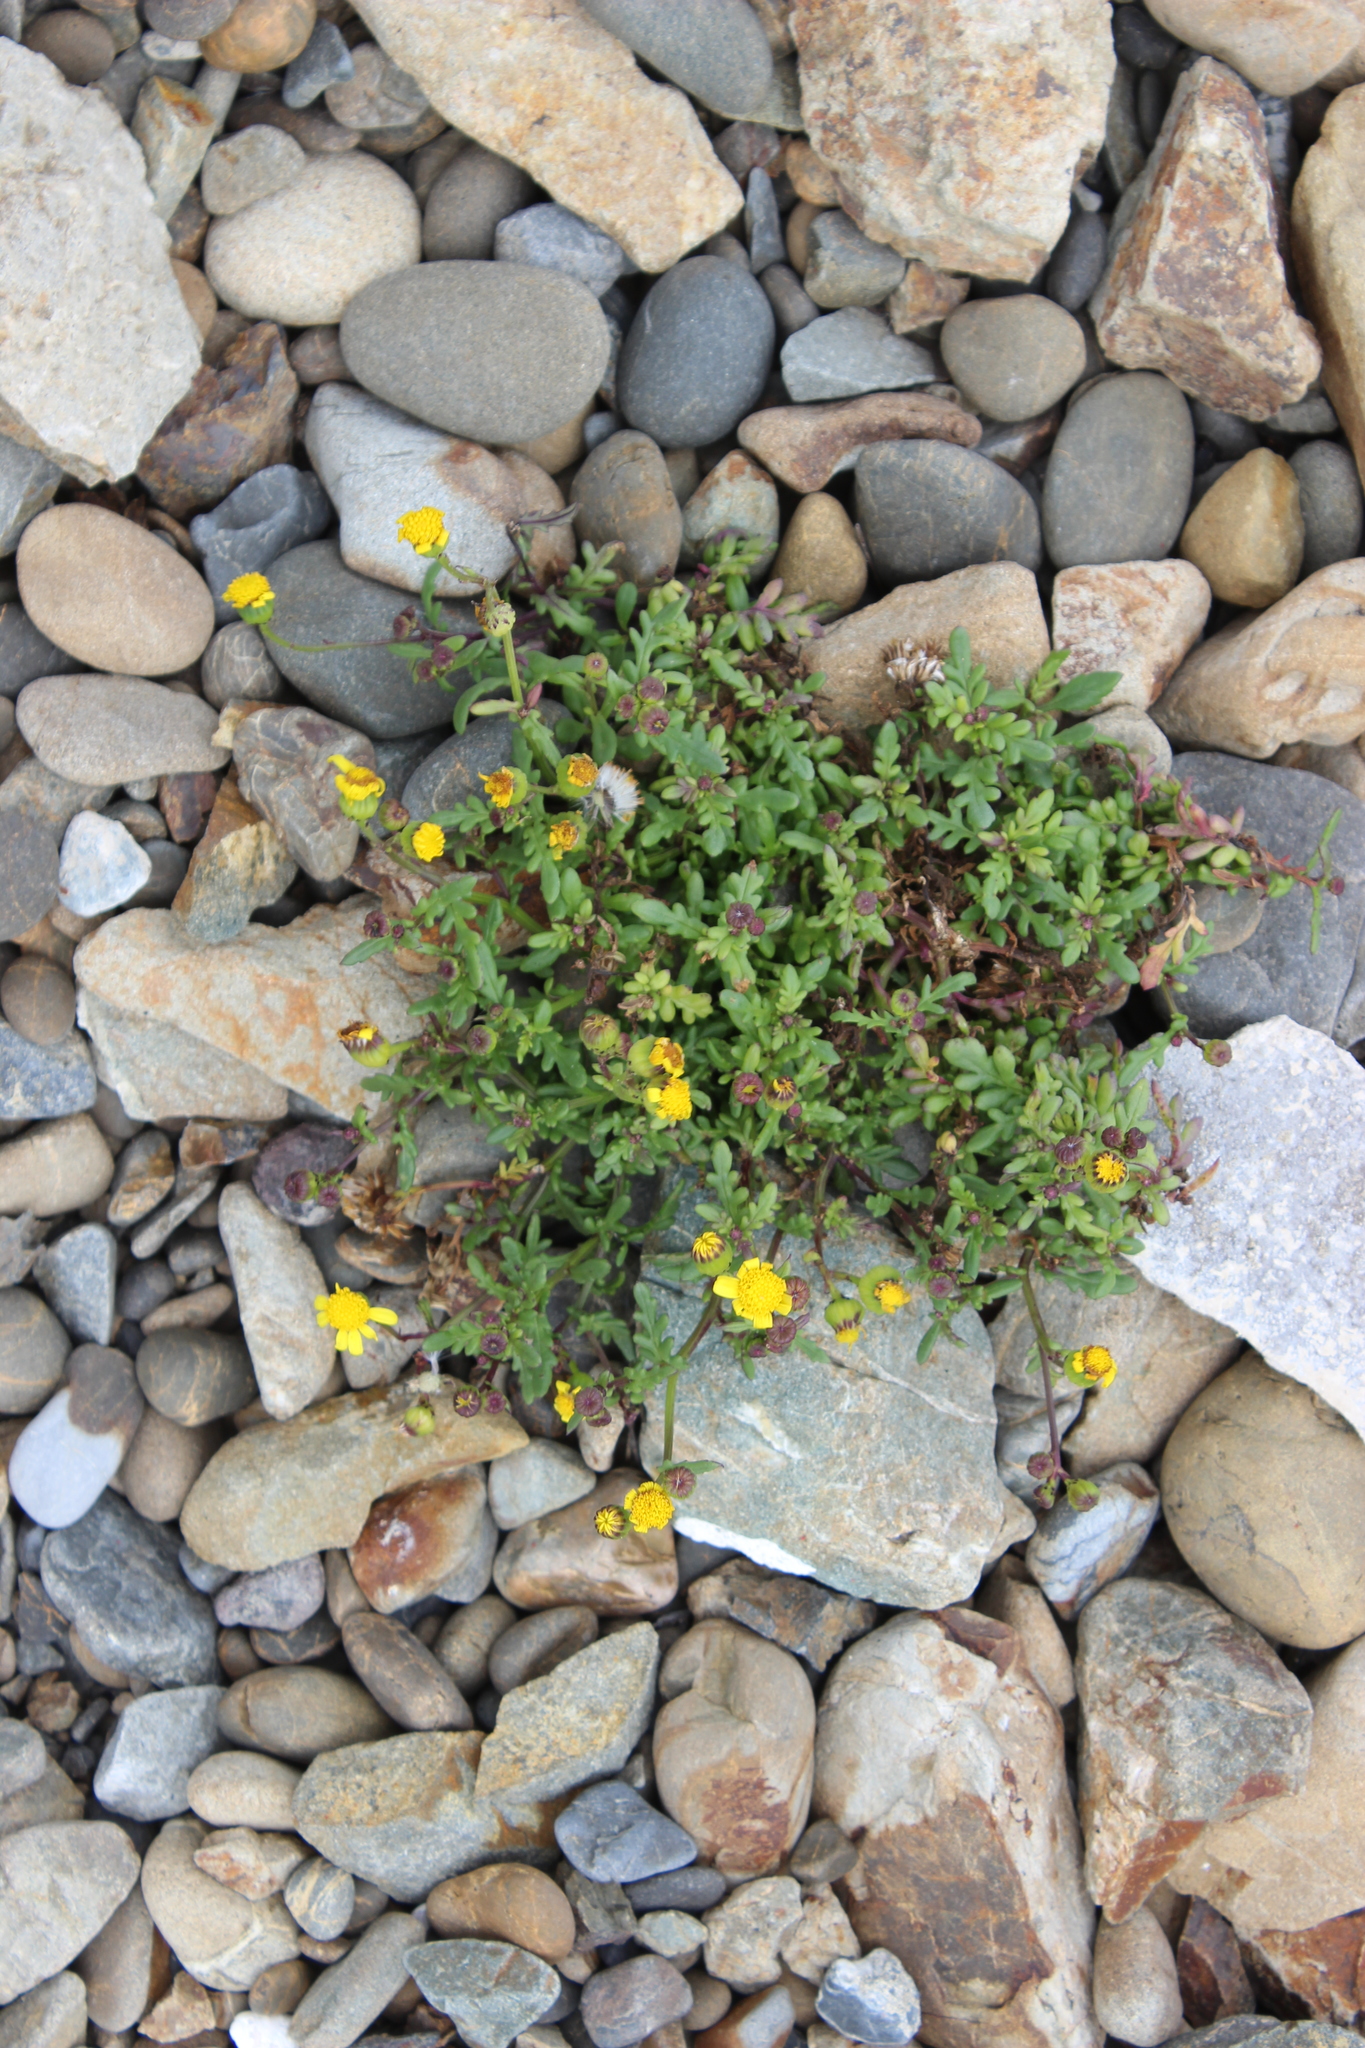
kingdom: Plantae
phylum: Tracheophyta
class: Magnoliopsida
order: Asterales
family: Asteraceae
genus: Senecio
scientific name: Senecio lautus
